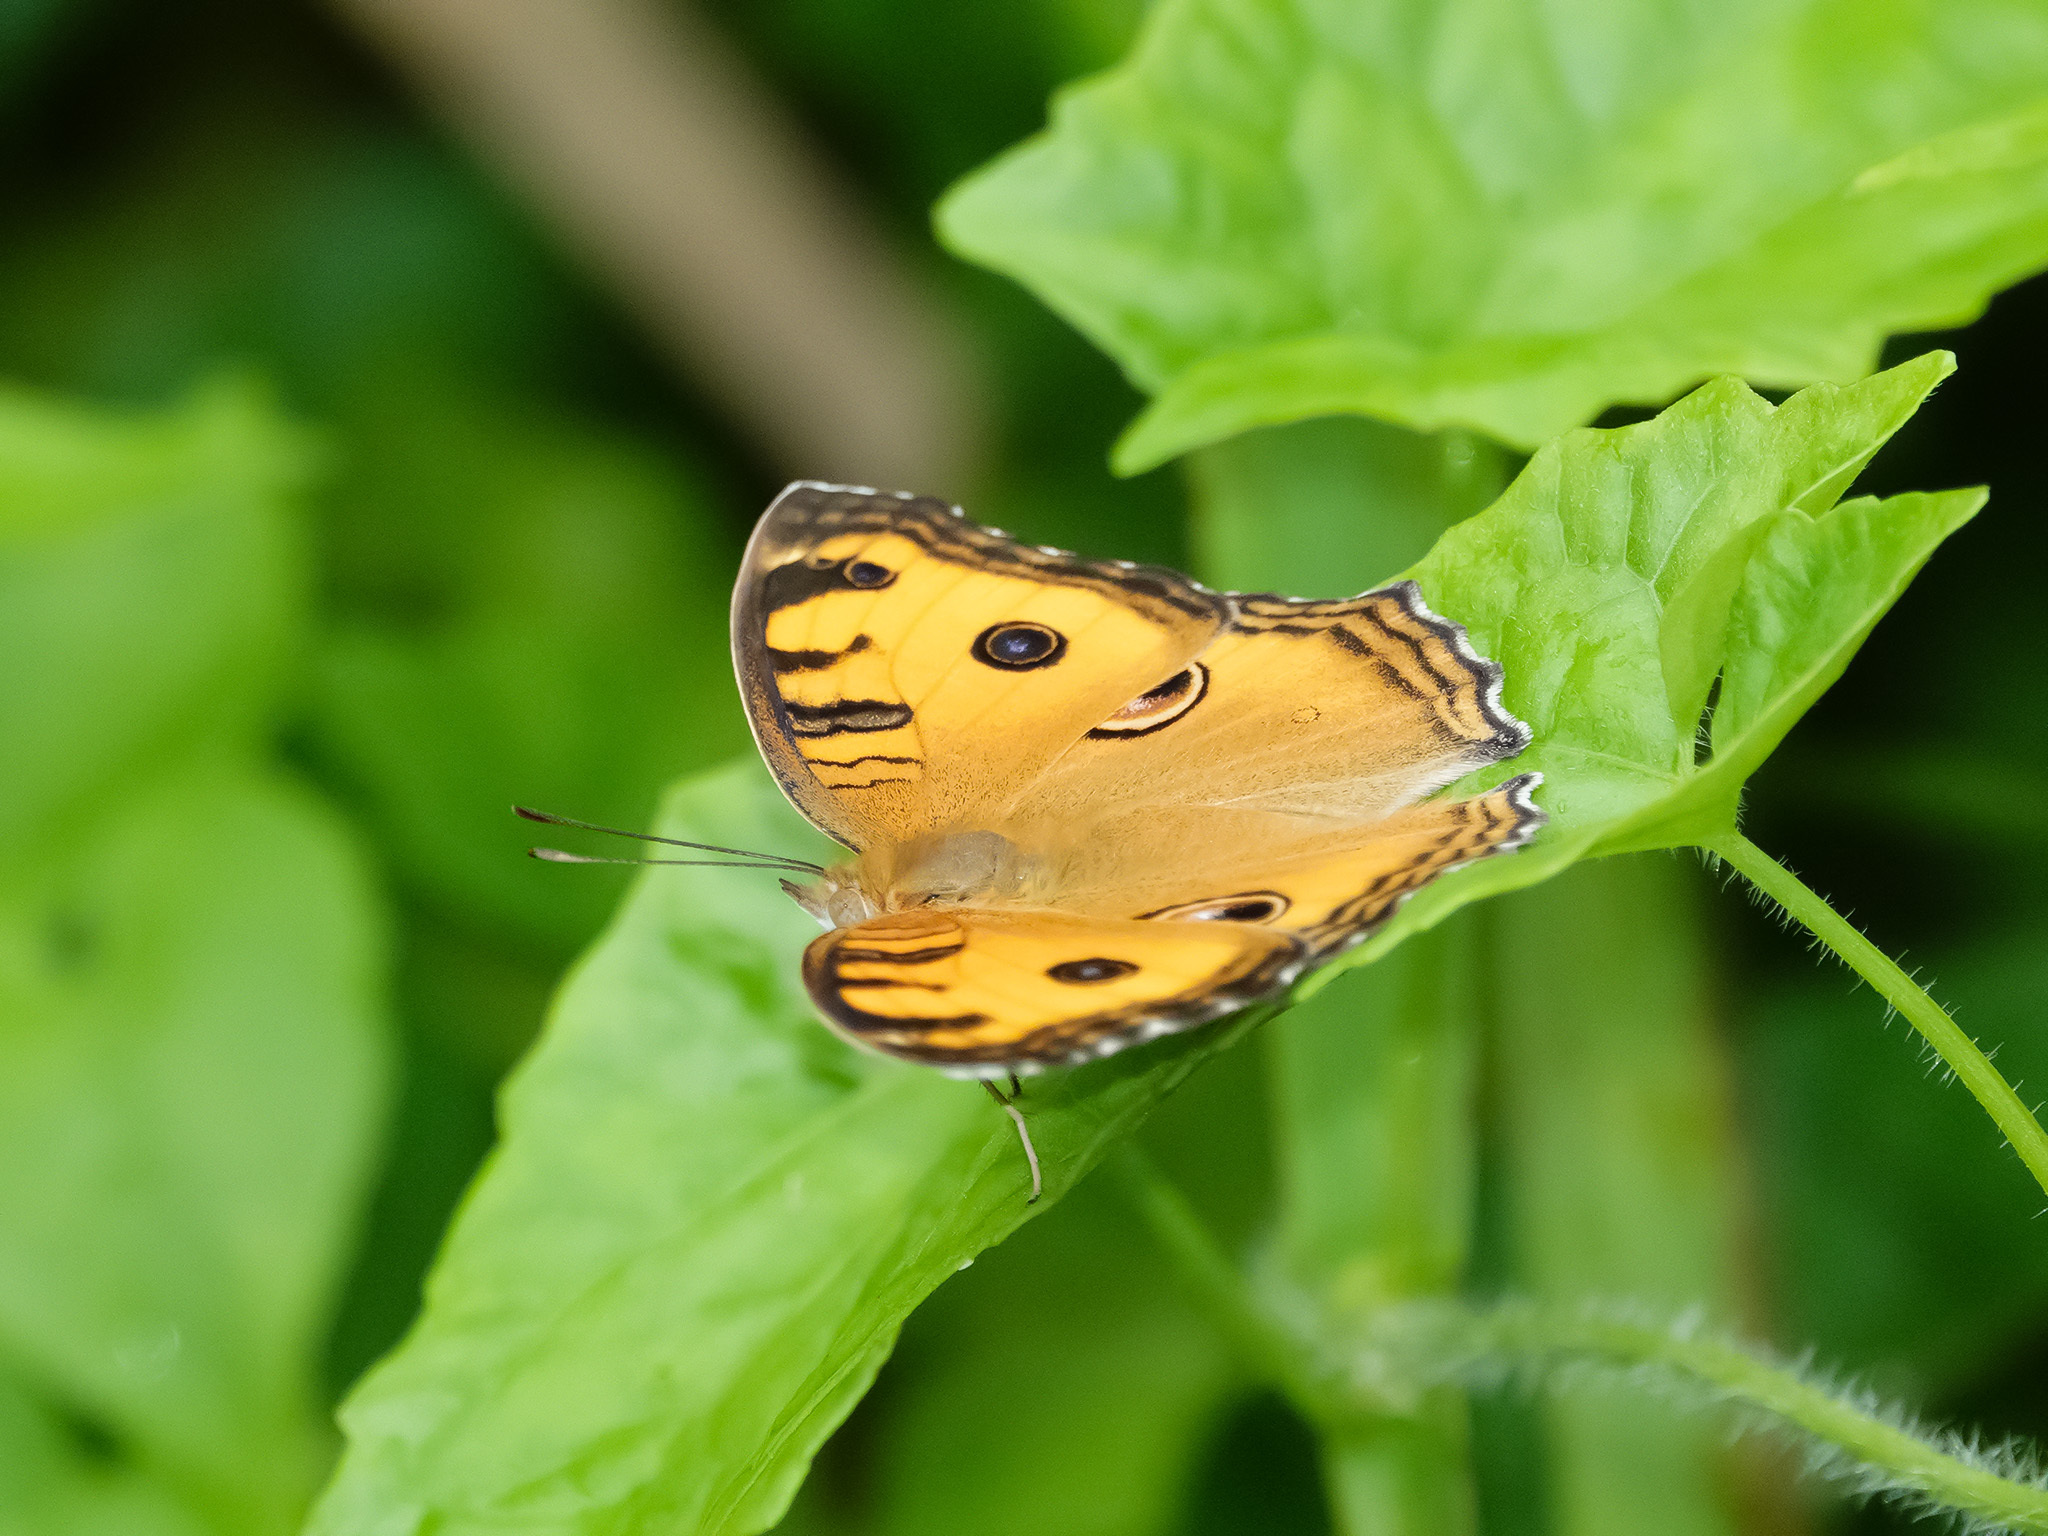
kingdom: Animalia
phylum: Arthropoda
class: Insecta
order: Lepidoptera
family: Nymphalidae
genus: Junonia
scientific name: Junonia almana
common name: Peacock pansy
